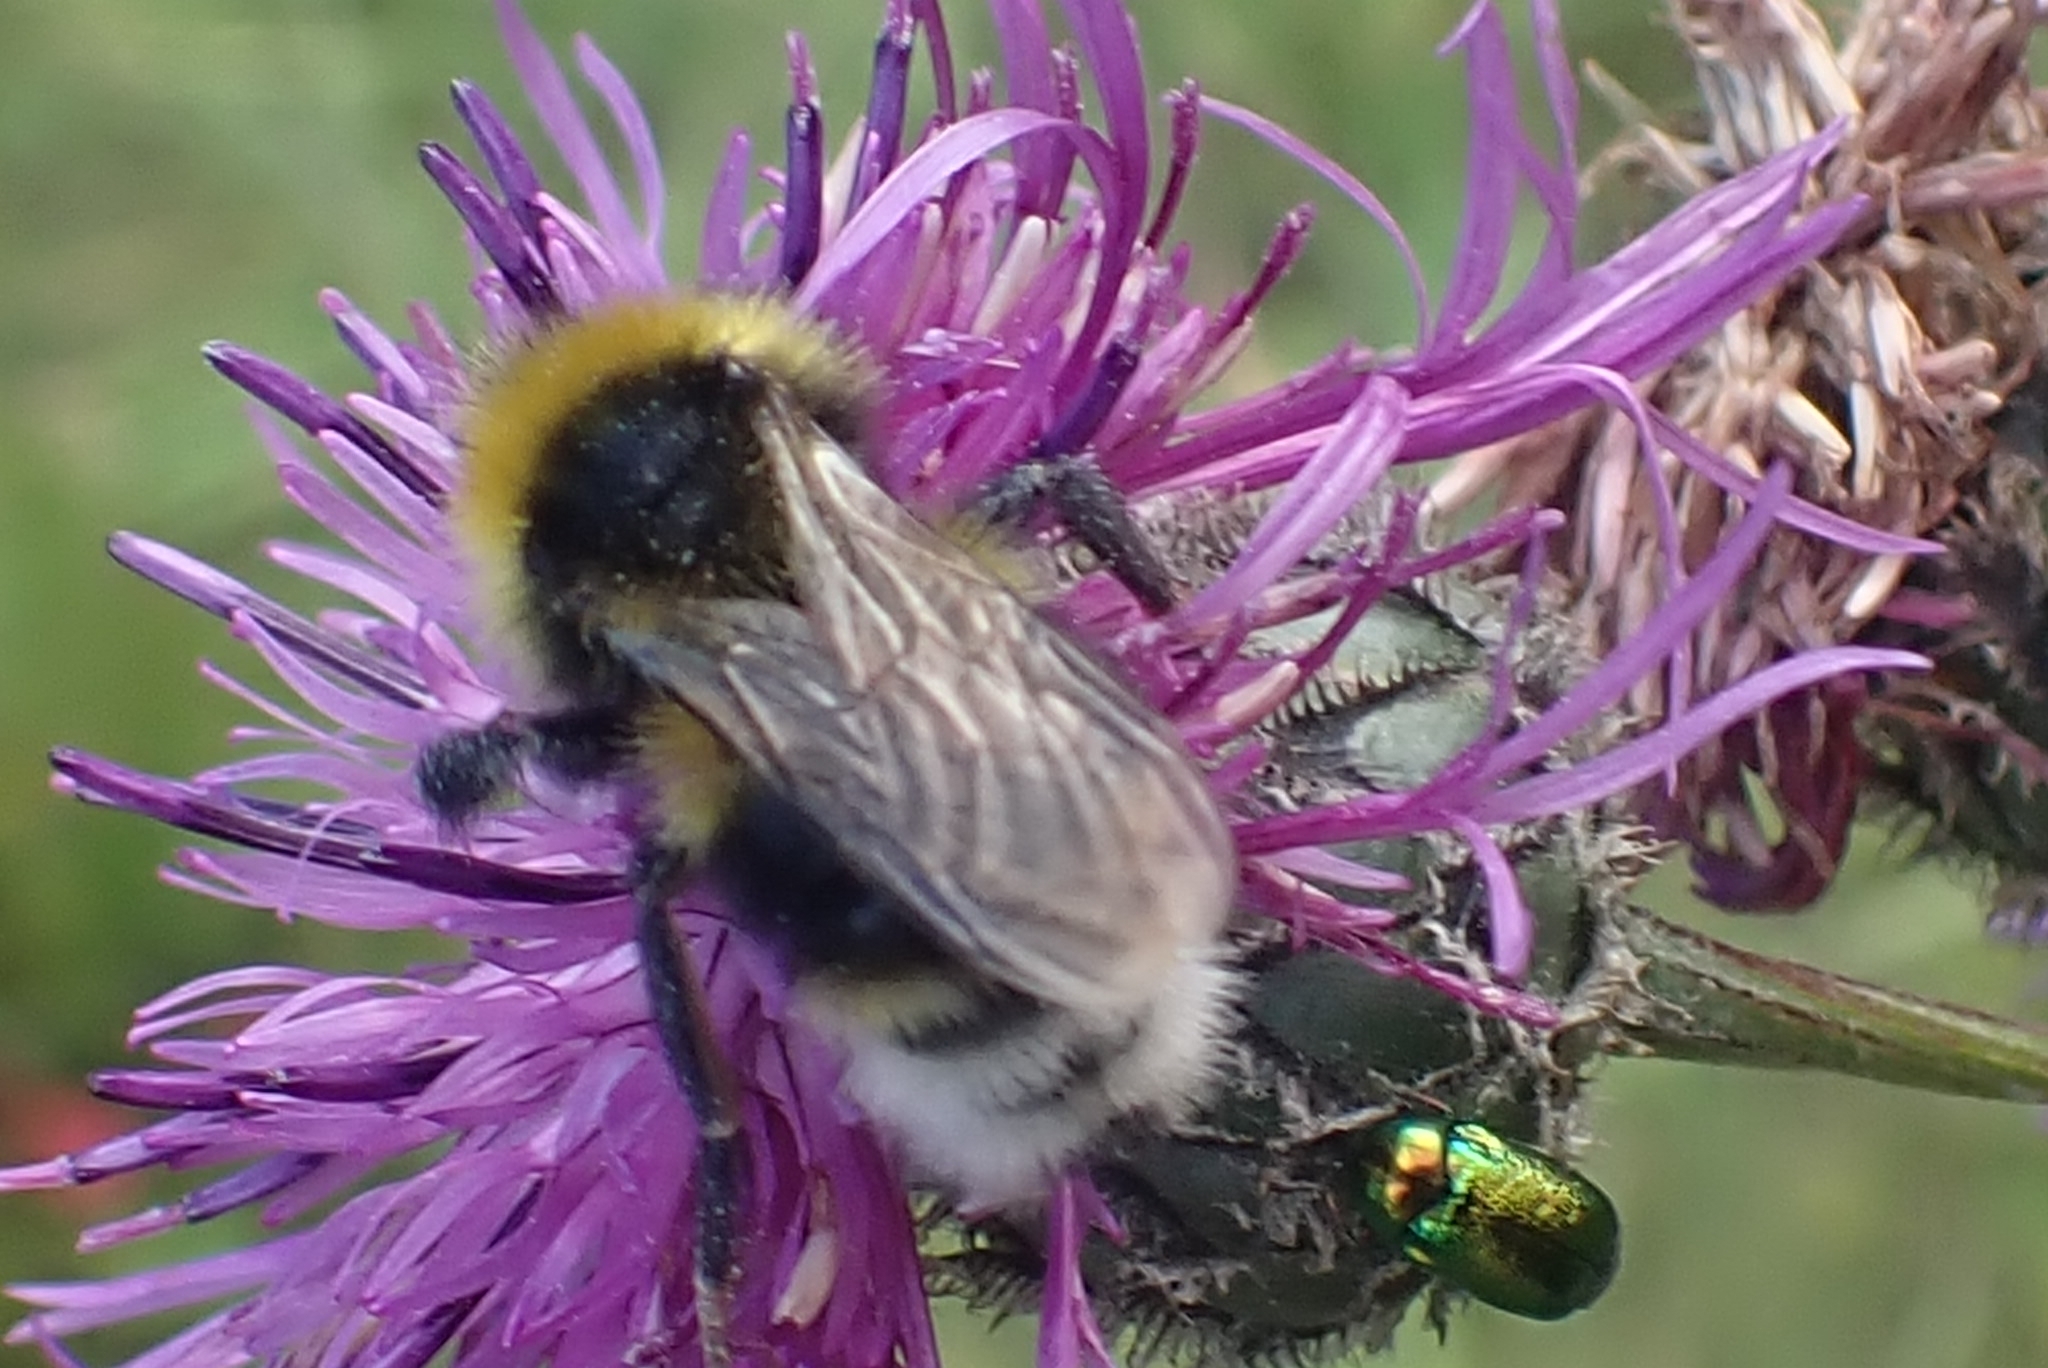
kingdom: Animalia
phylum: Arthropoda
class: Insecta
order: Hymenoptera
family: Apidae
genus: Bombus
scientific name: Bombus bohemicus
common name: Gypsy cuckoo bee
